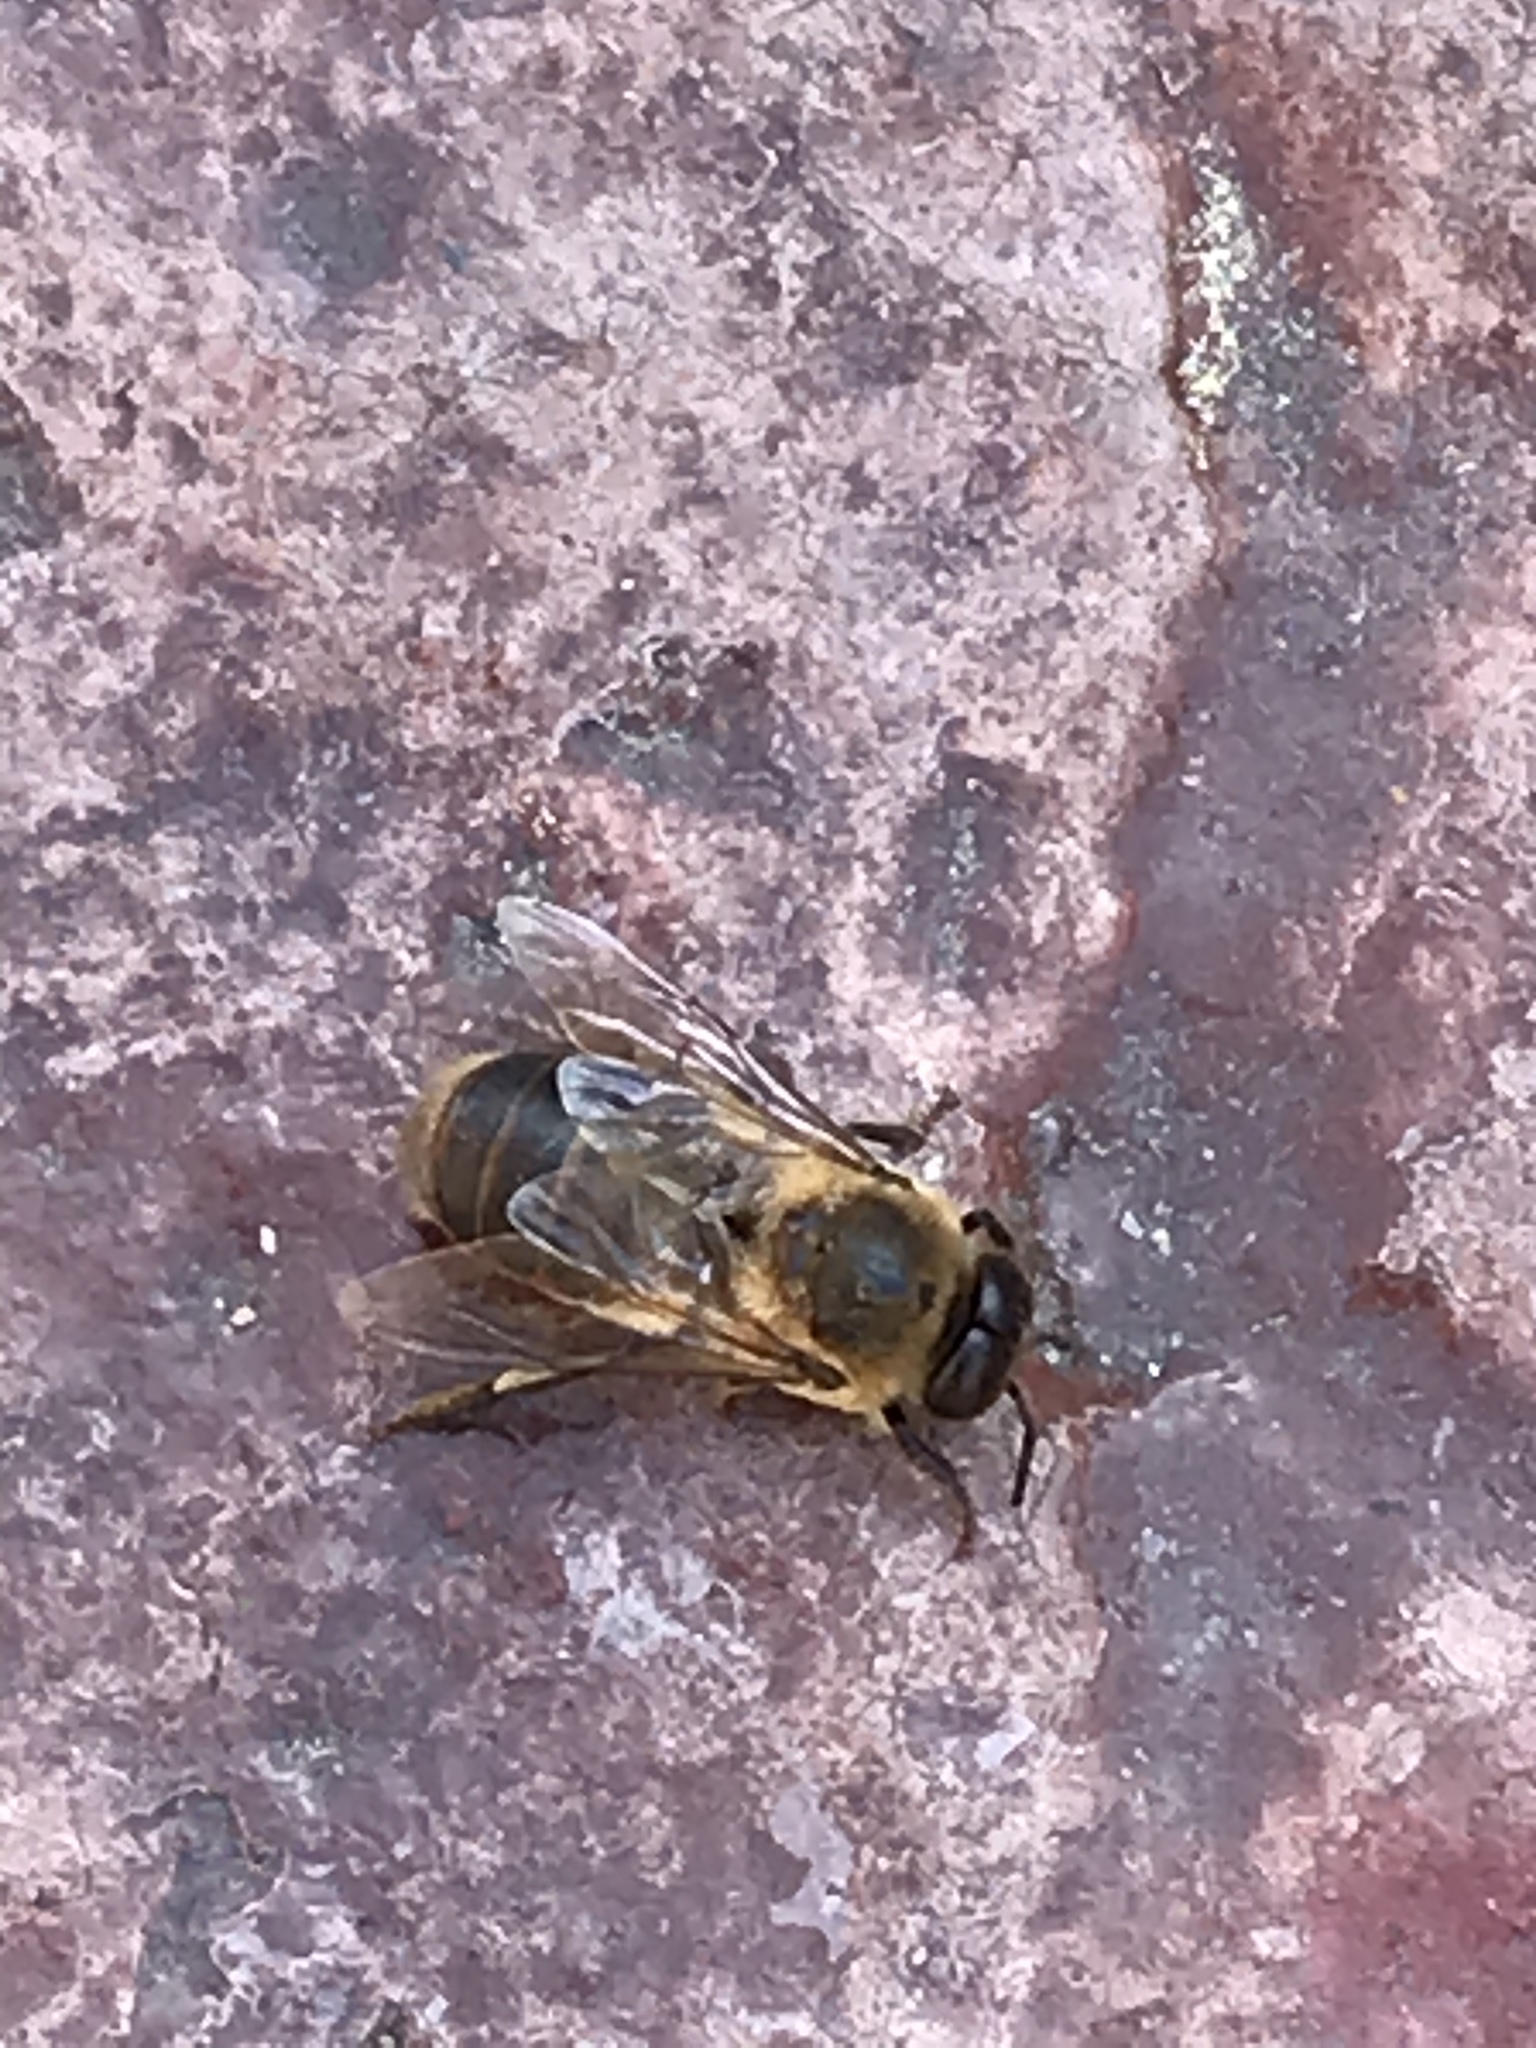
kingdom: Animalia
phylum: Arthropoda
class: Insecta
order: Hymenoptera
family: Apidae
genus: Apis
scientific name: Apis mellifera
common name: Honey bee
